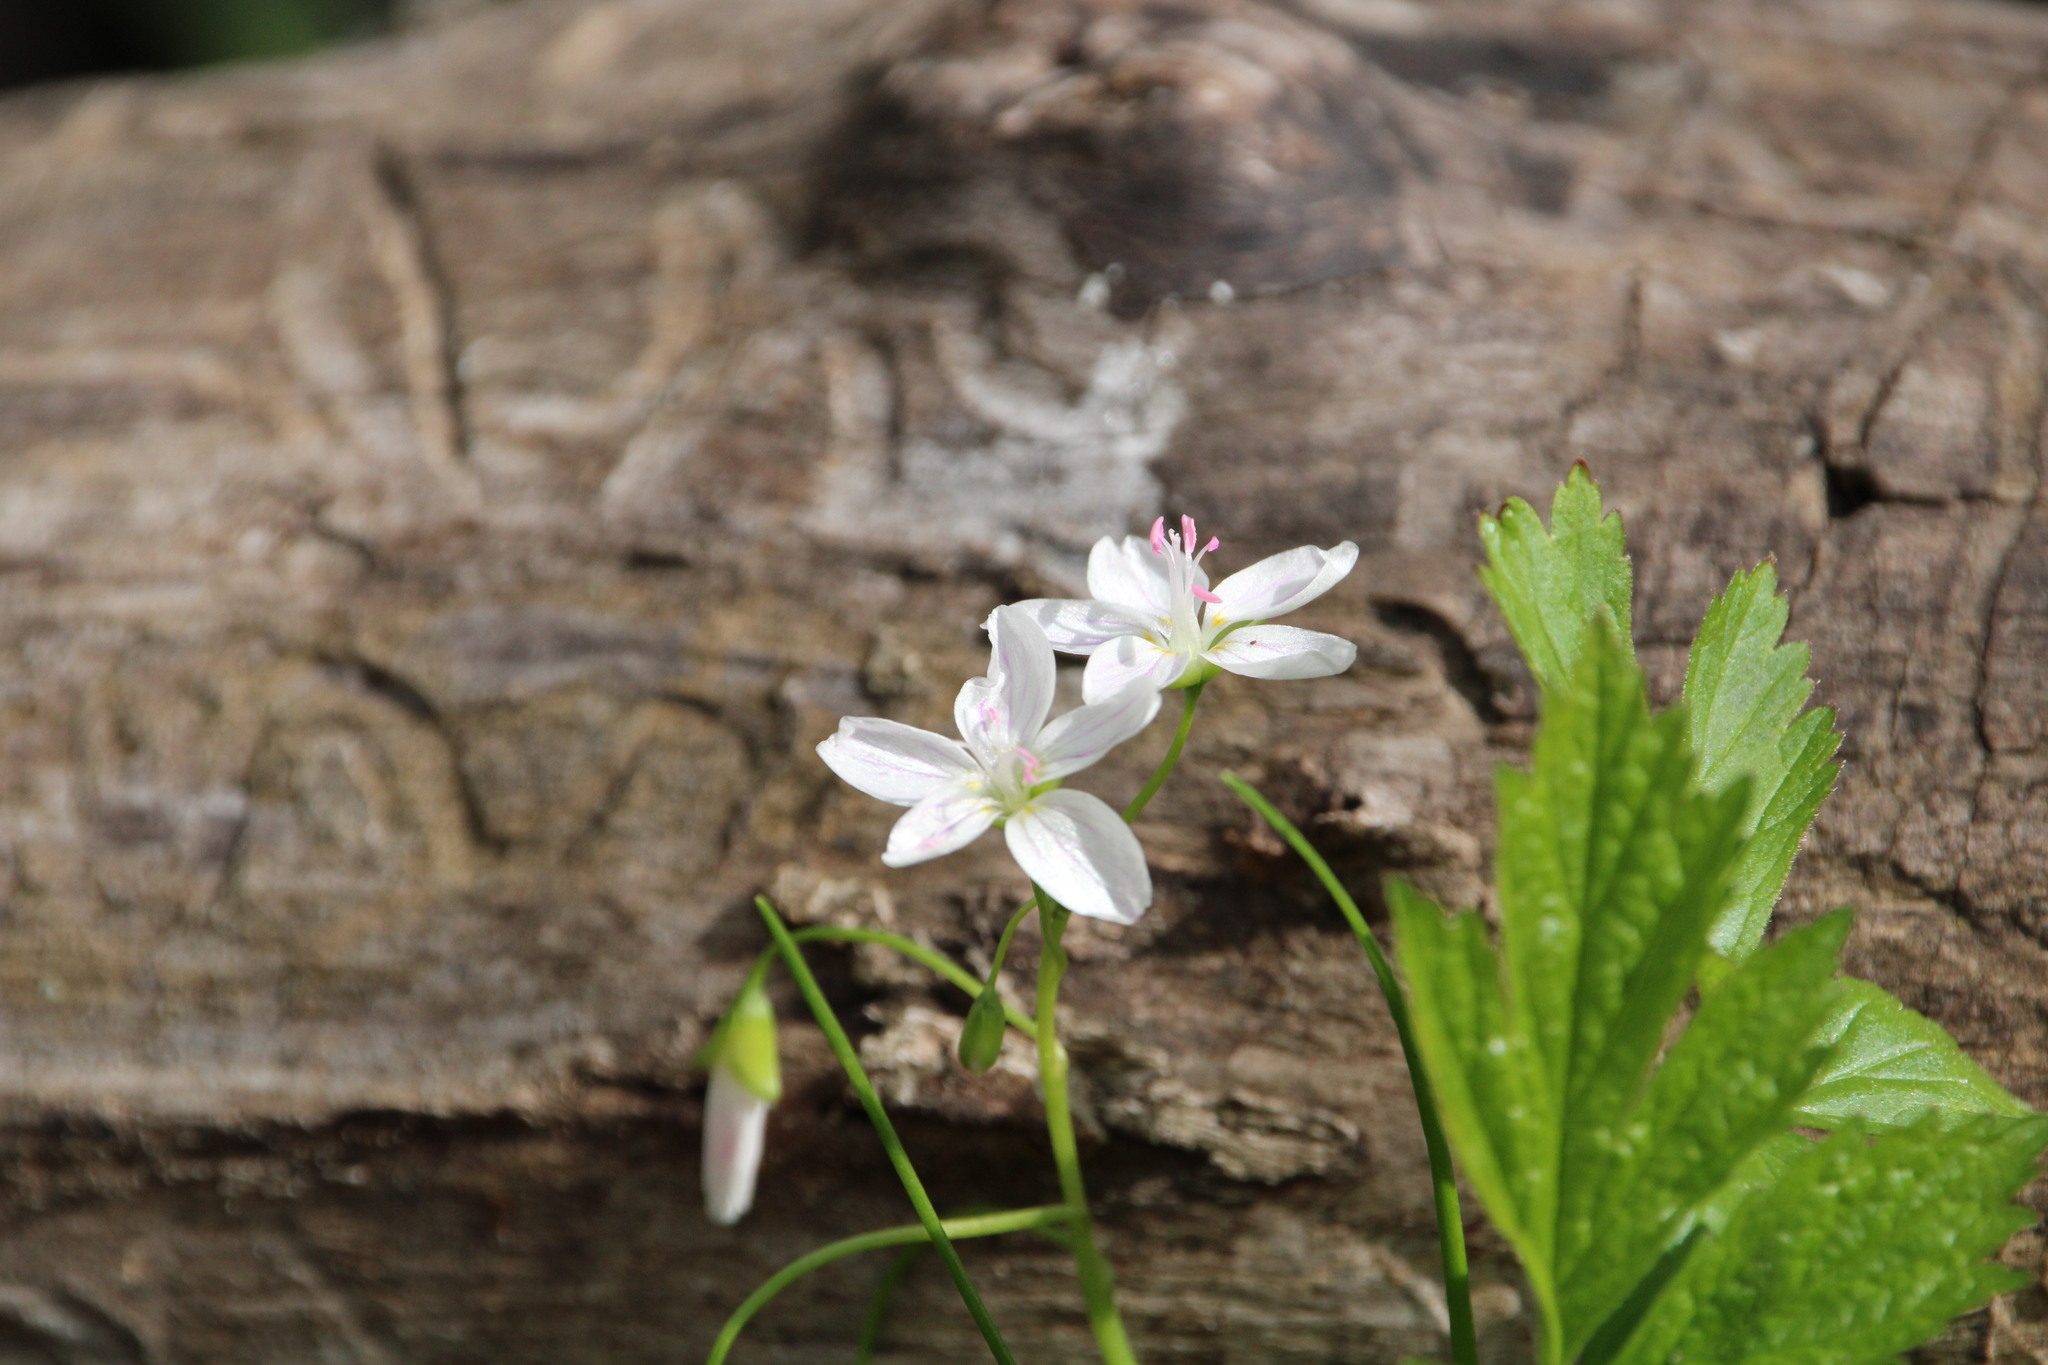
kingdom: Plantae
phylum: Tracheophyta
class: Magnoliopsida
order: Caryophyllales
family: Montiaceae
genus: Claytonia
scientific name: Claytonia virginica
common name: Virginia springbeauty
